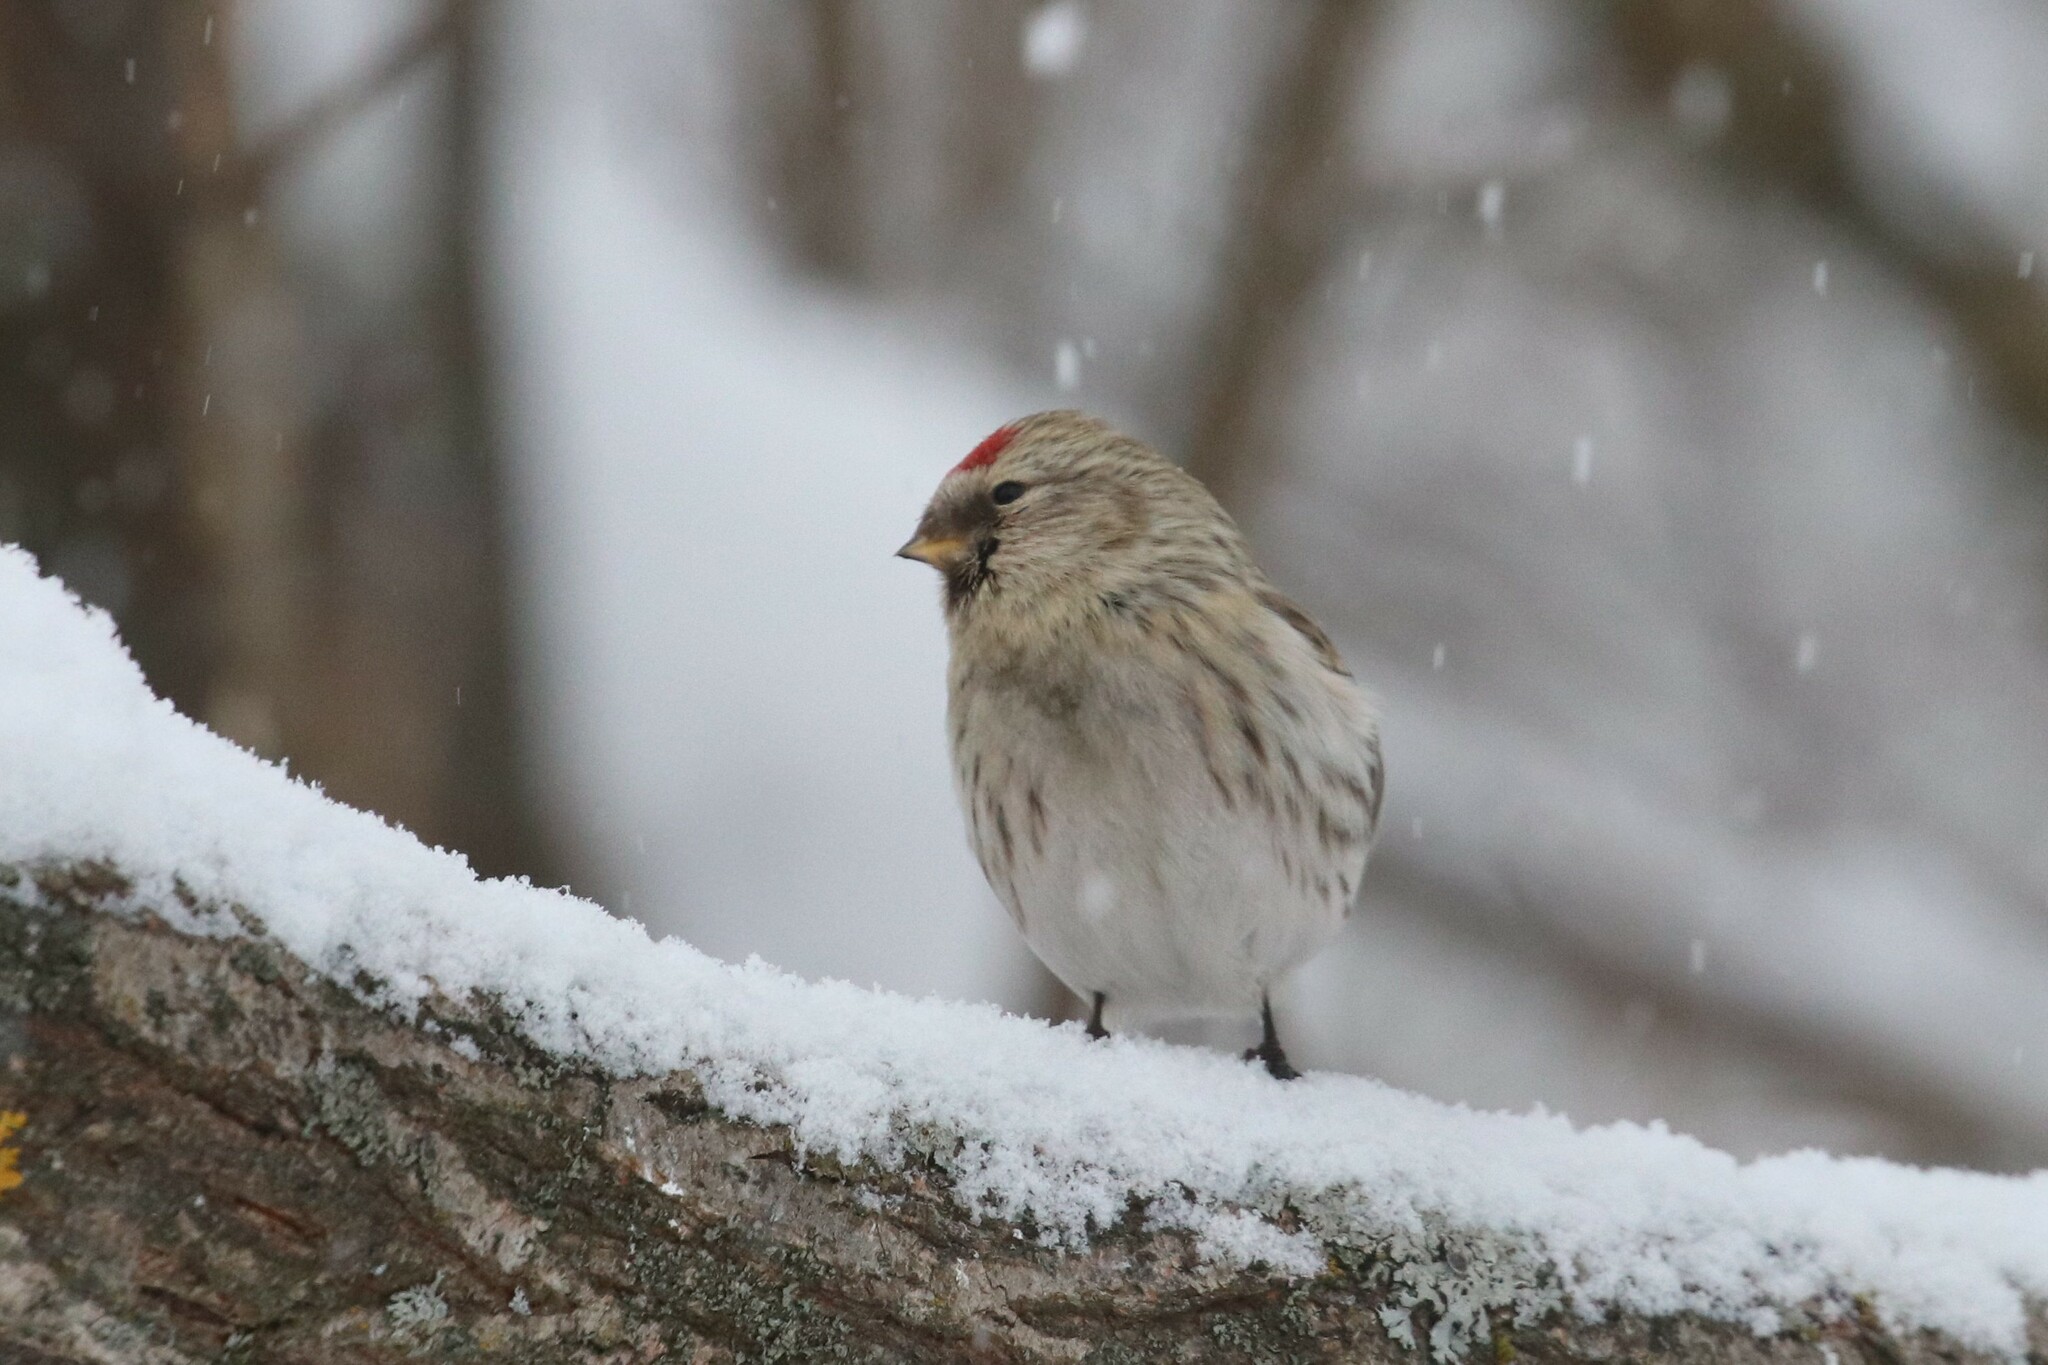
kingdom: Animalia
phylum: Chordata
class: Aves
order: Passeriformes
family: Fringillidae
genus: Acanthis
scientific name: Acanthis flammea
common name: Common redpoll
